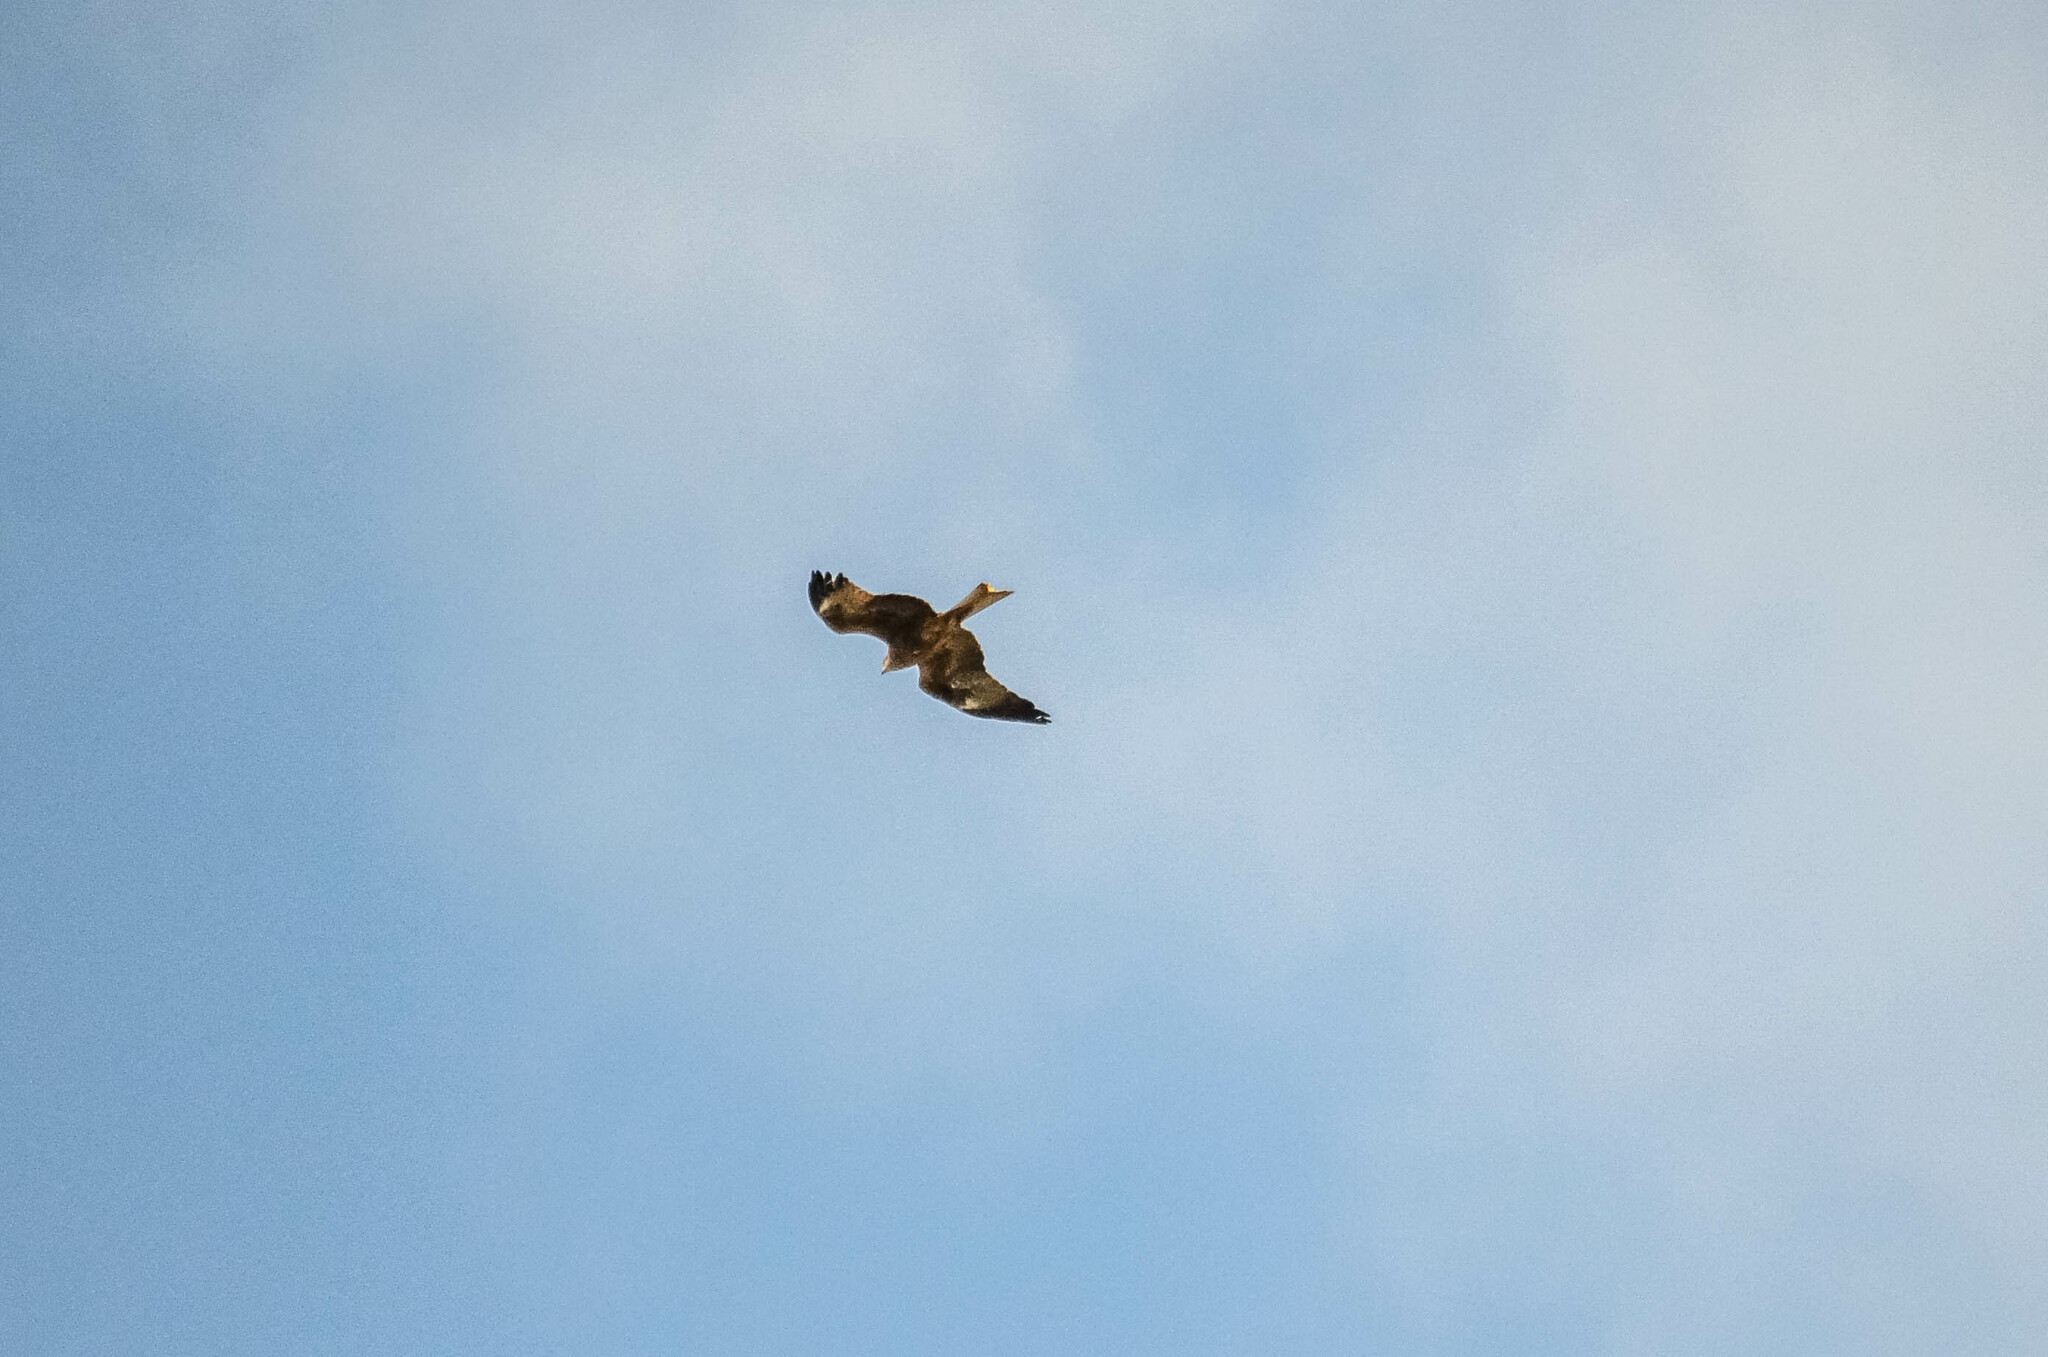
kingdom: Animalia
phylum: Chordata
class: Aves
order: Accipitriformes
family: Accipitridae
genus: Milvus
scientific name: Milvus migrans
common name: Black kite
